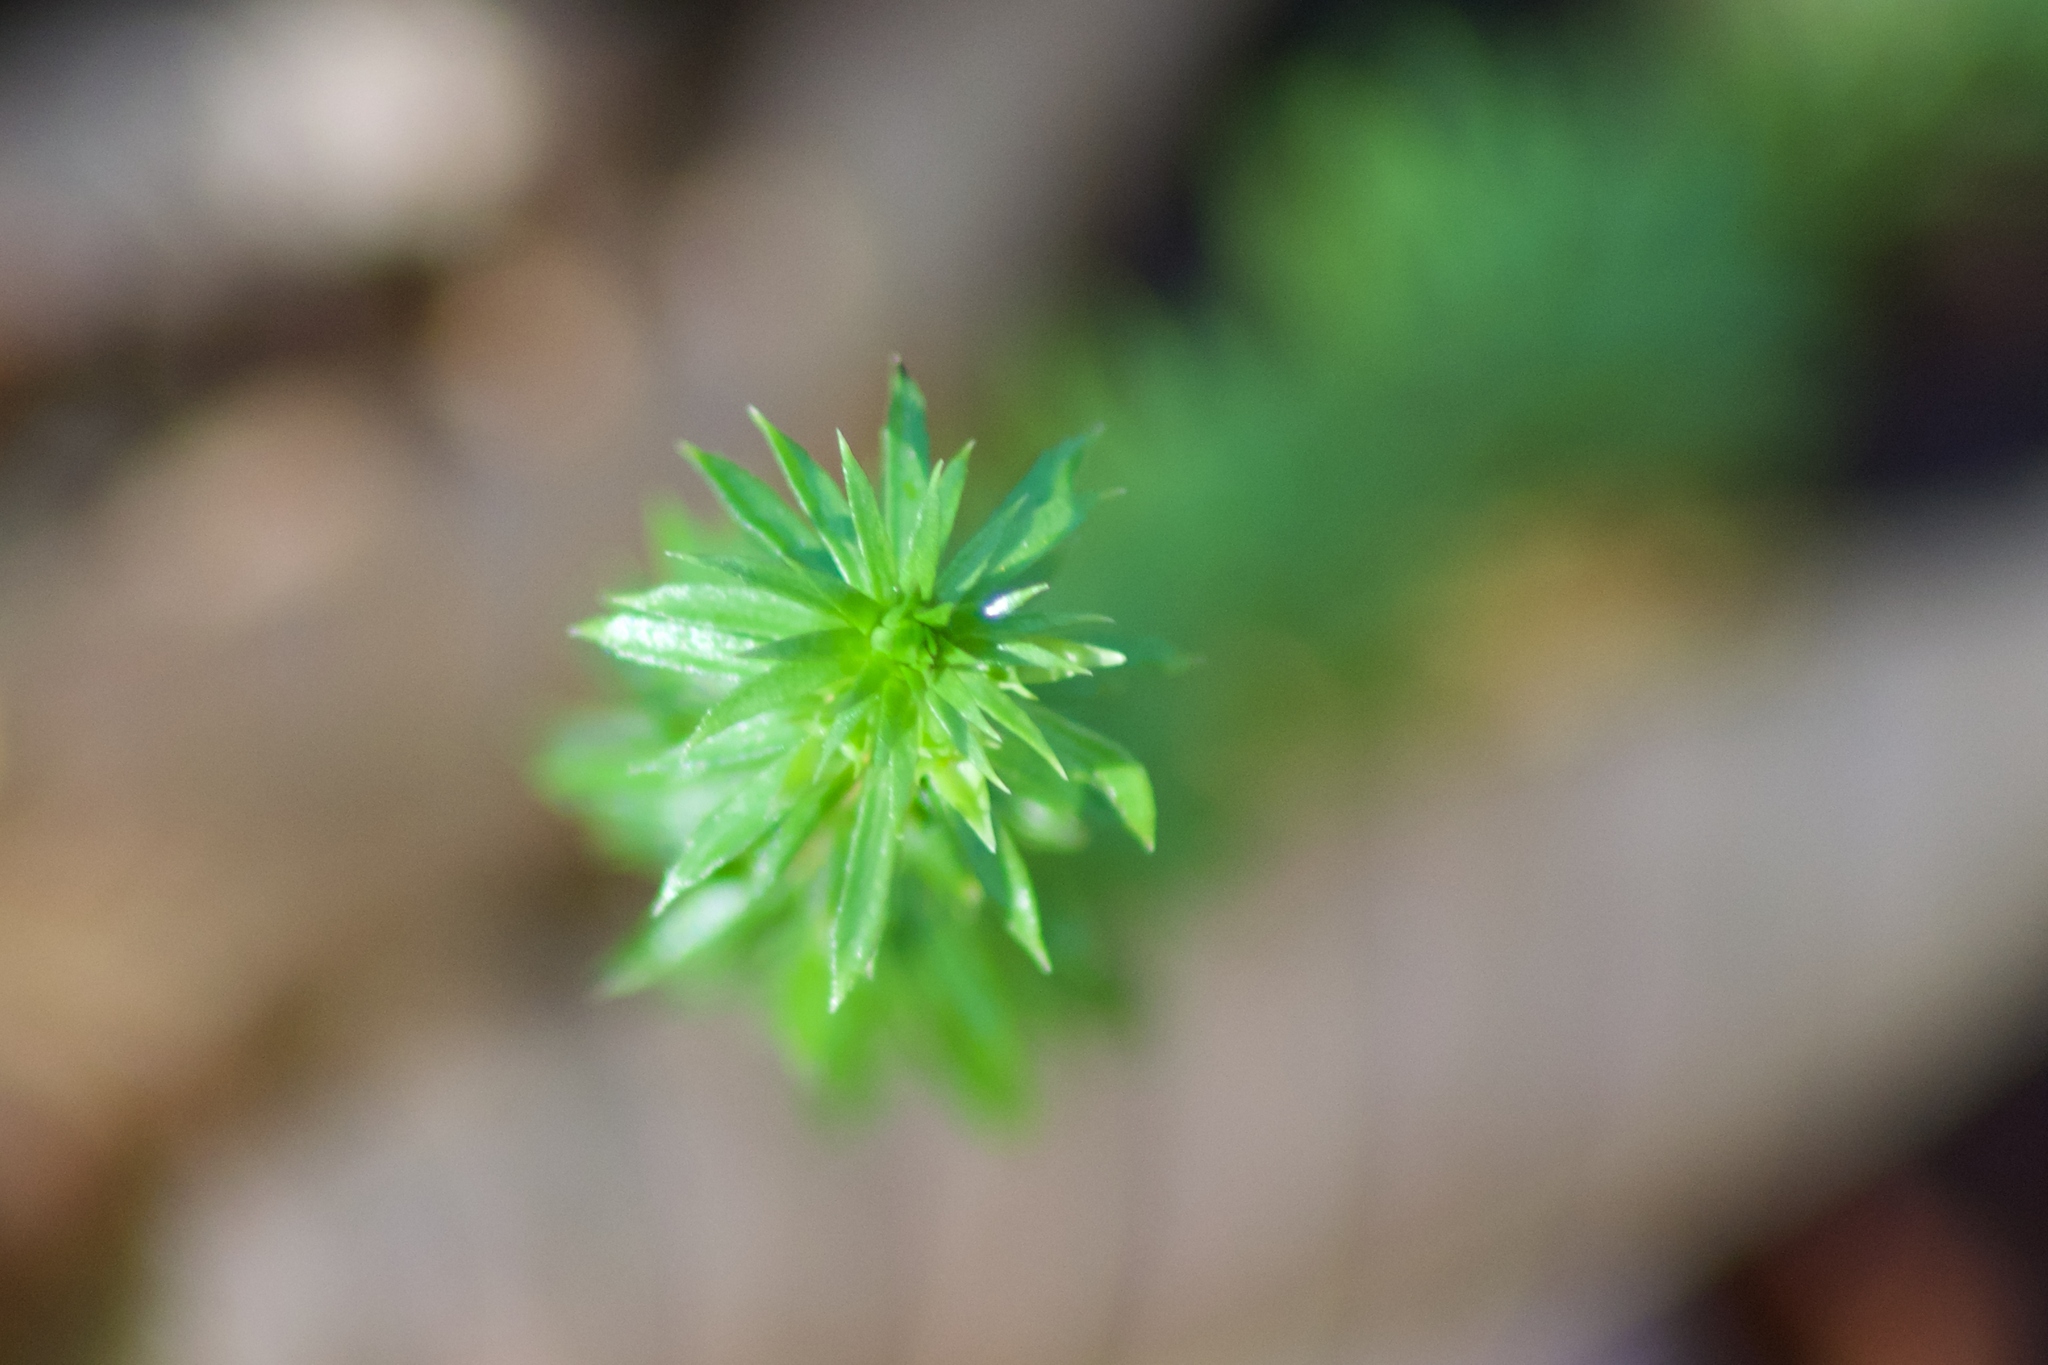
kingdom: Plantae
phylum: Tracheophyta
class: Lycopodiopsida
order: Lycopodiales
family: Lycopodiaceae
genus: Huperzia
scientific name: Huperzia lucidula
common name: Shining clubmoss
